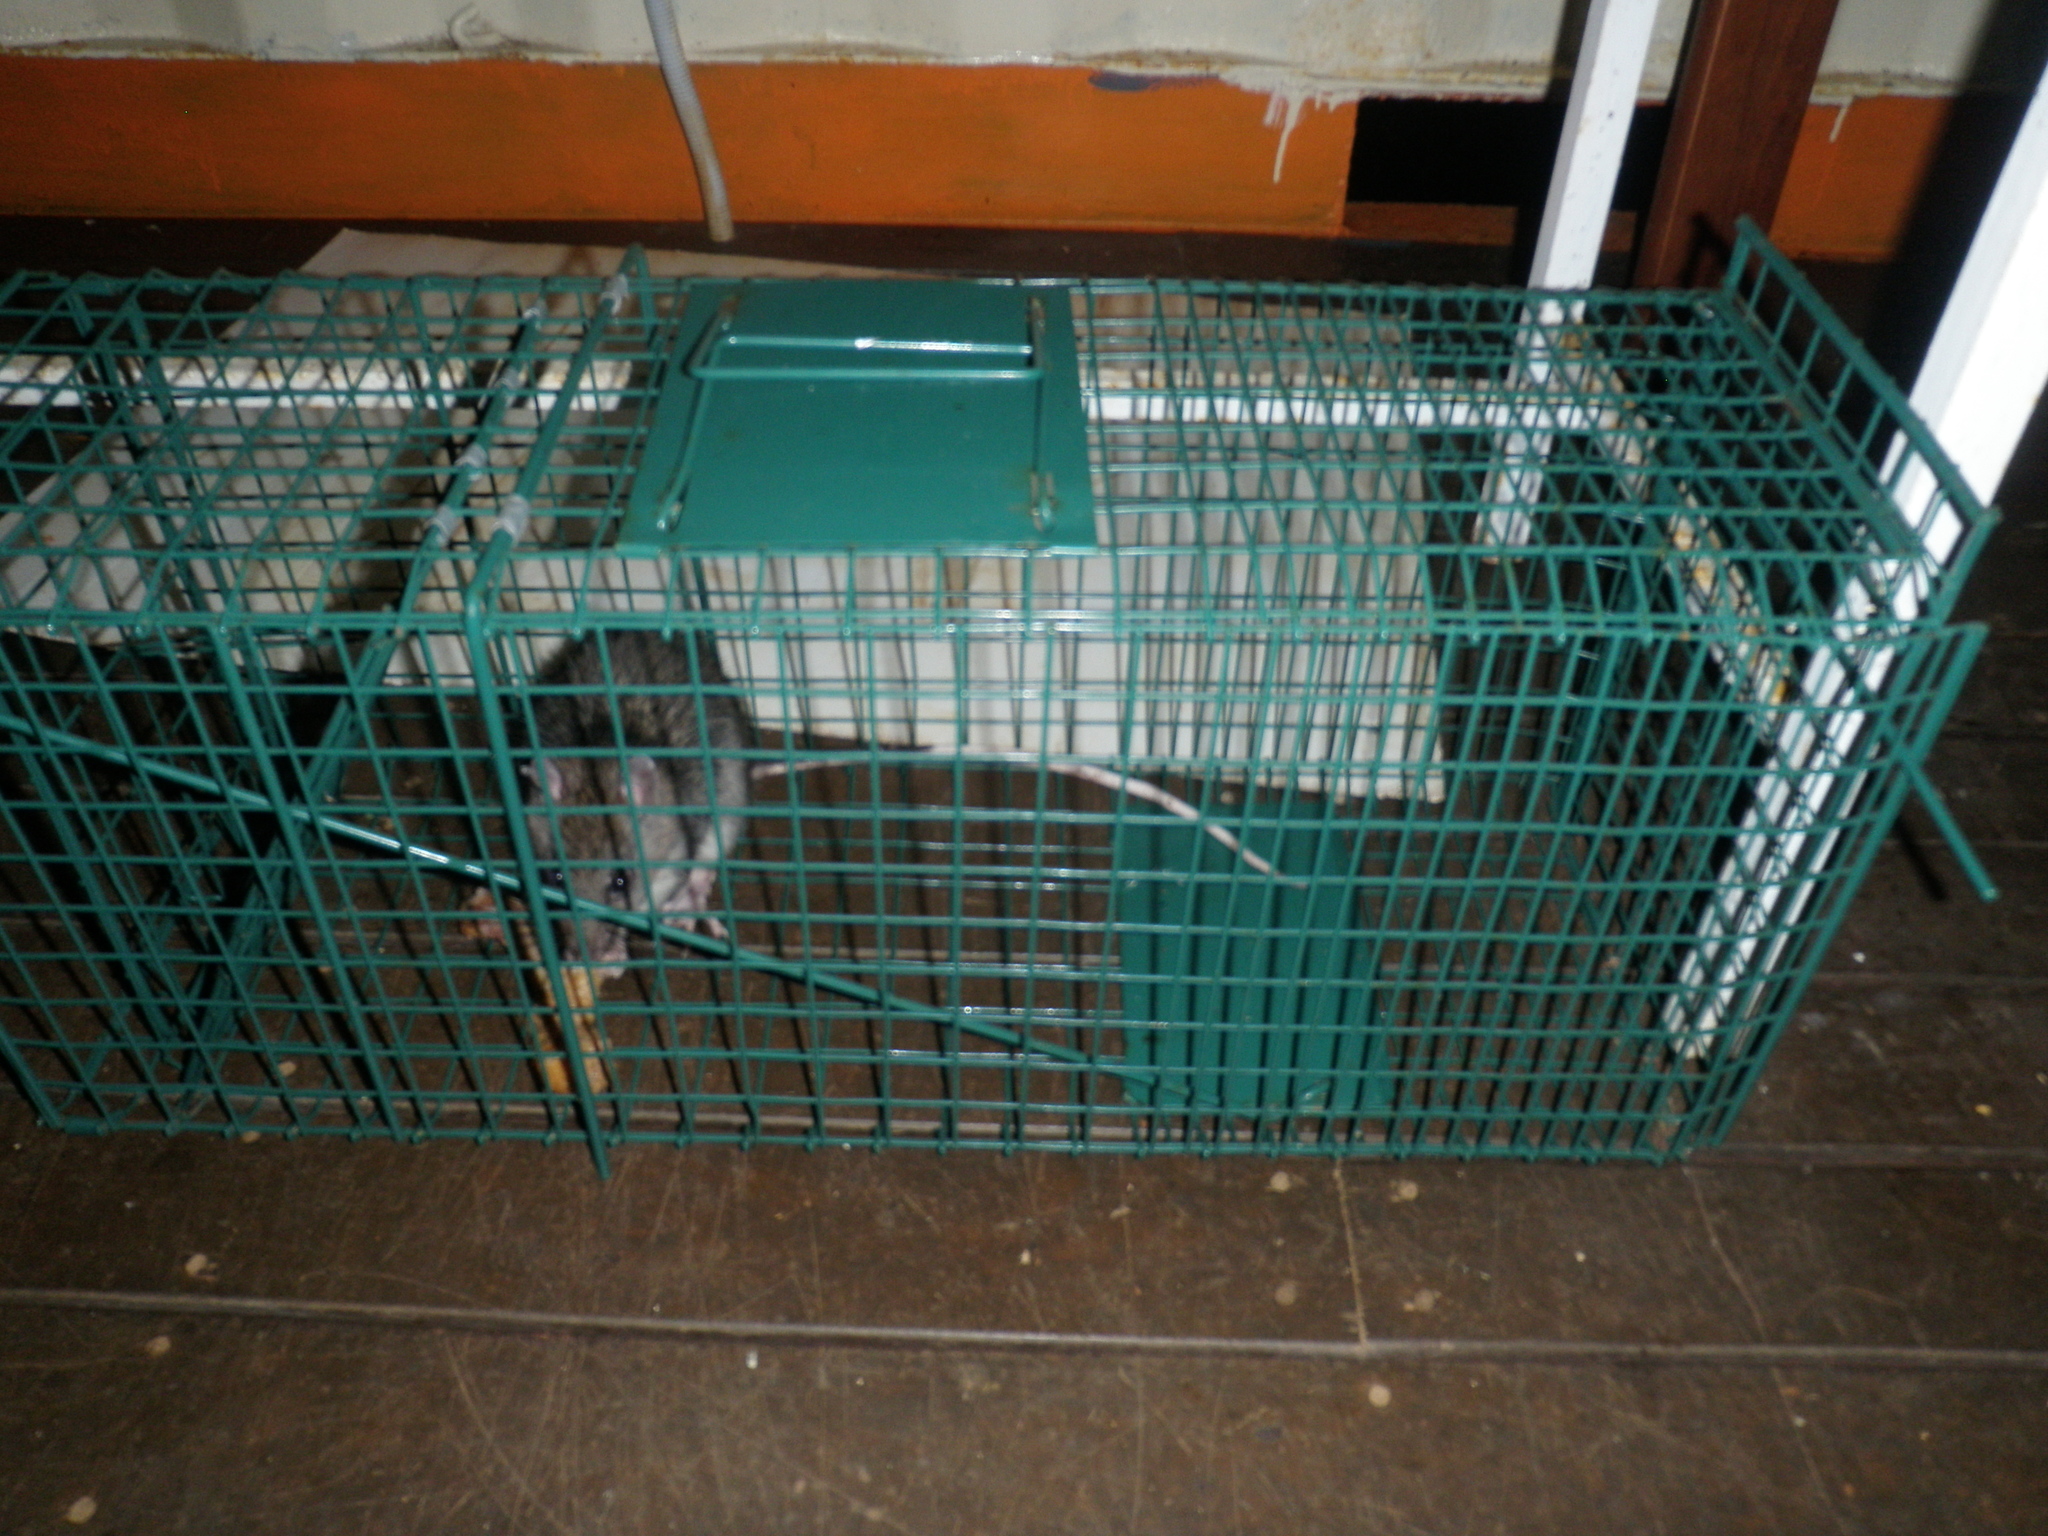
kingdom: Animalia
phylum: Chordata
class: Mammalia
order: Rodentia
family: Muridae
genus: Uromys
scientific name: Uromys caudimaculatus
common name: Giant white-tailed uromys
